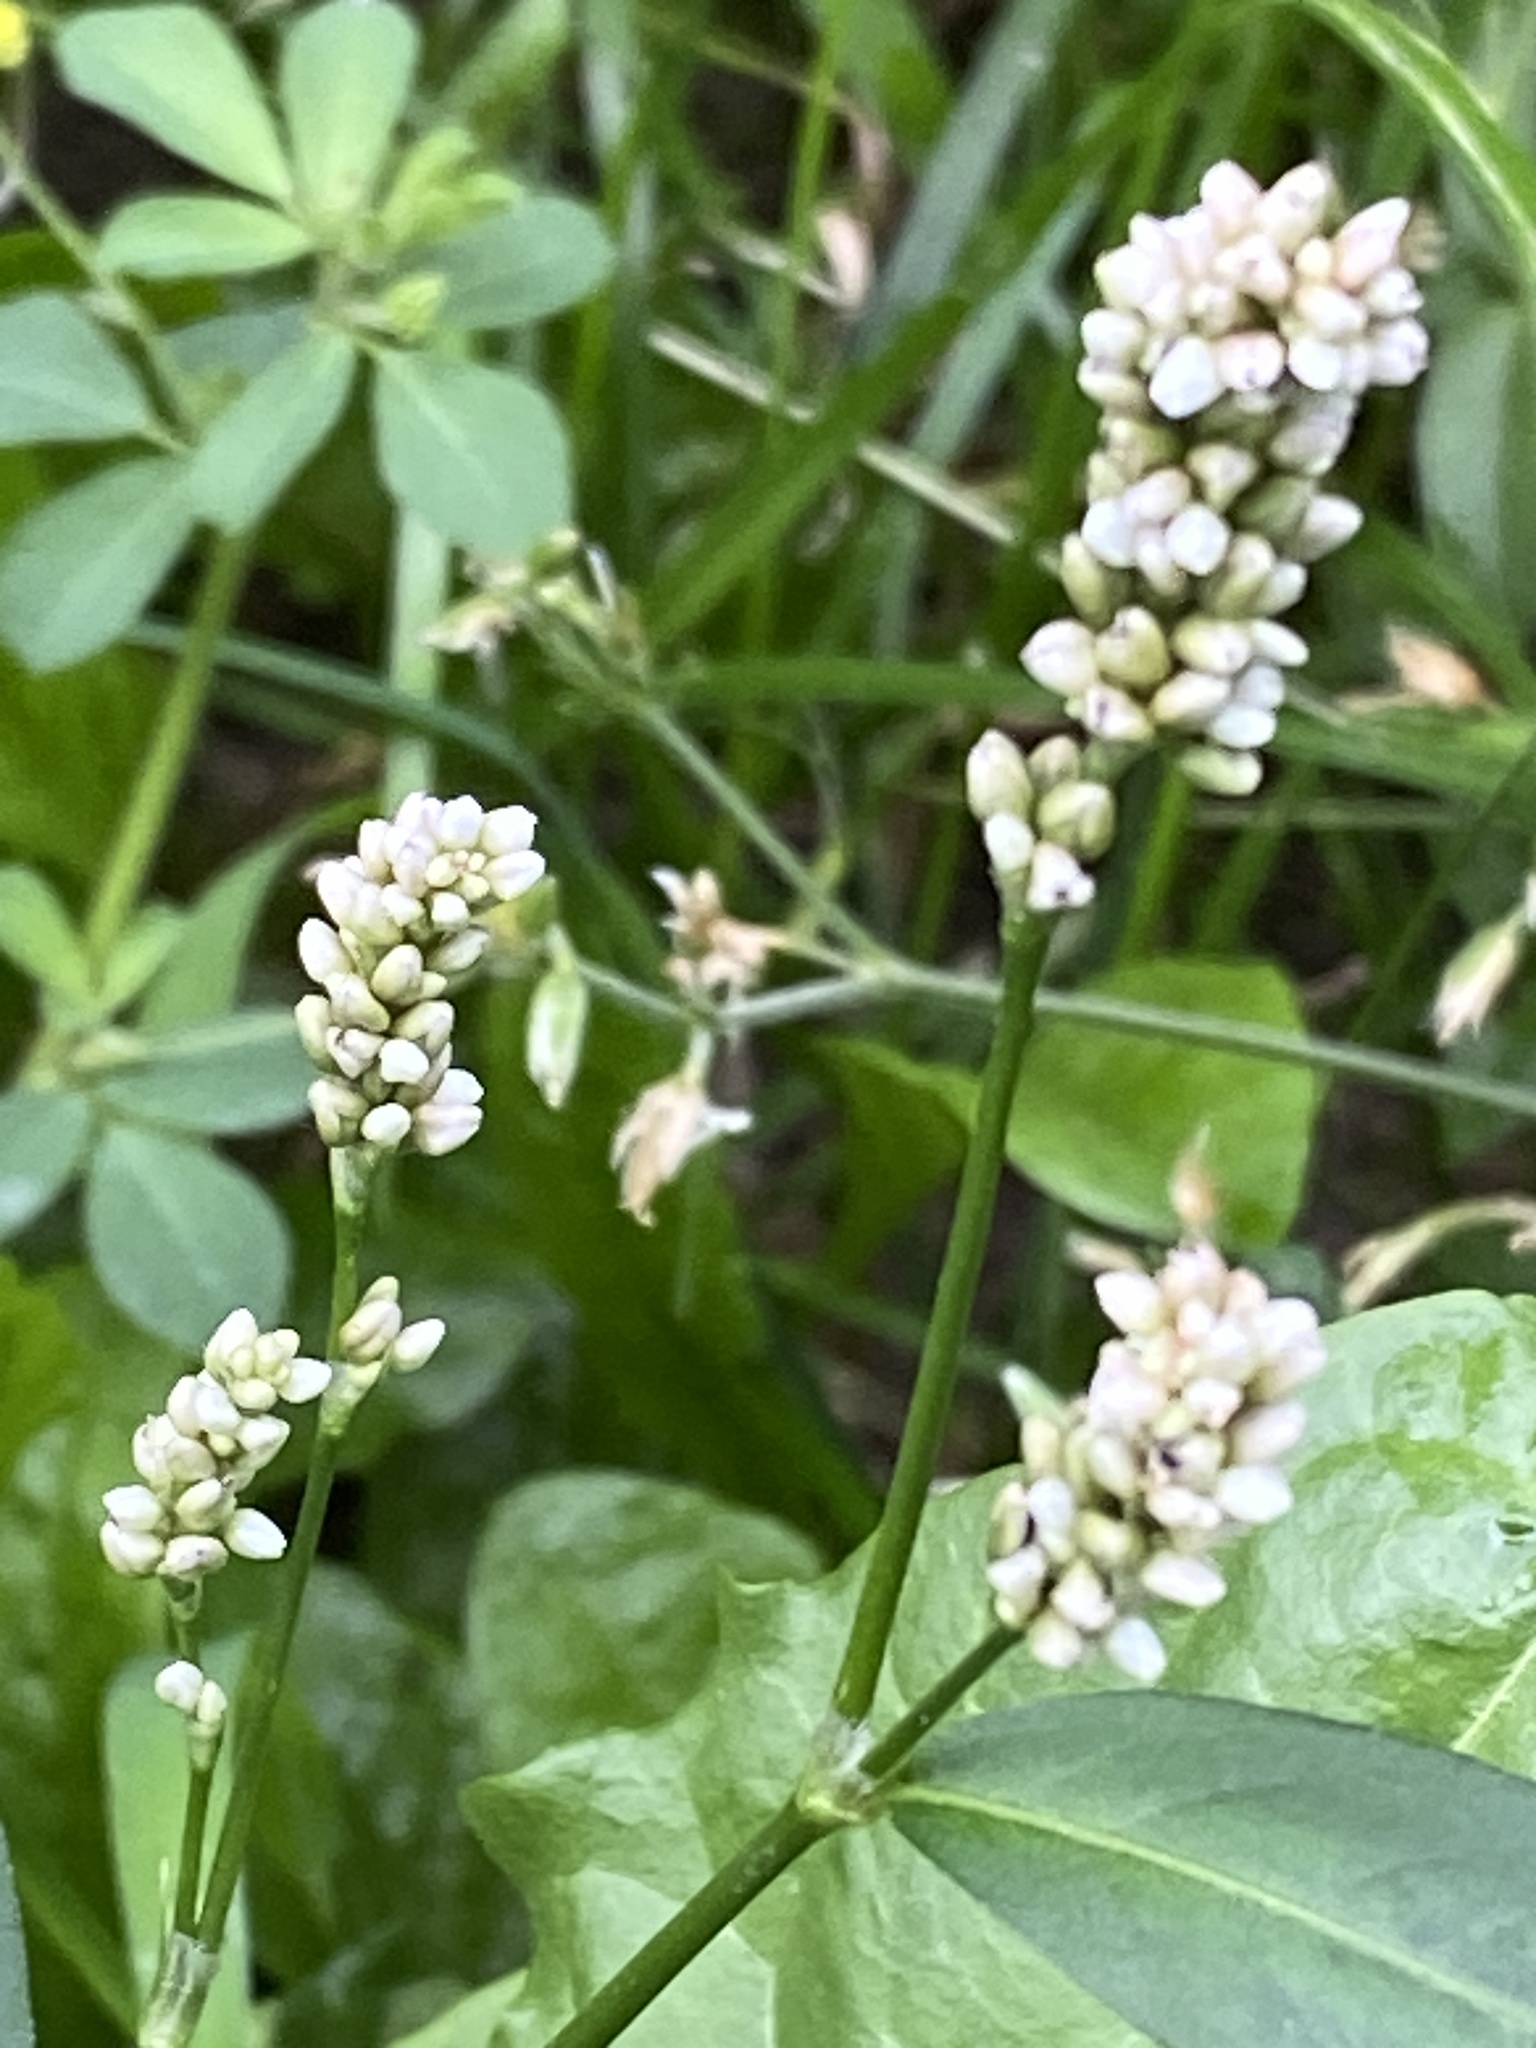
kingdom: Plantae
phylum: Tracheophyta
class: Magnoliopsida
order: Caryophyllales
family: Polygonaceae
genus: Persicaria
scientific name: Persicaria maculosa
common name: Redshank
